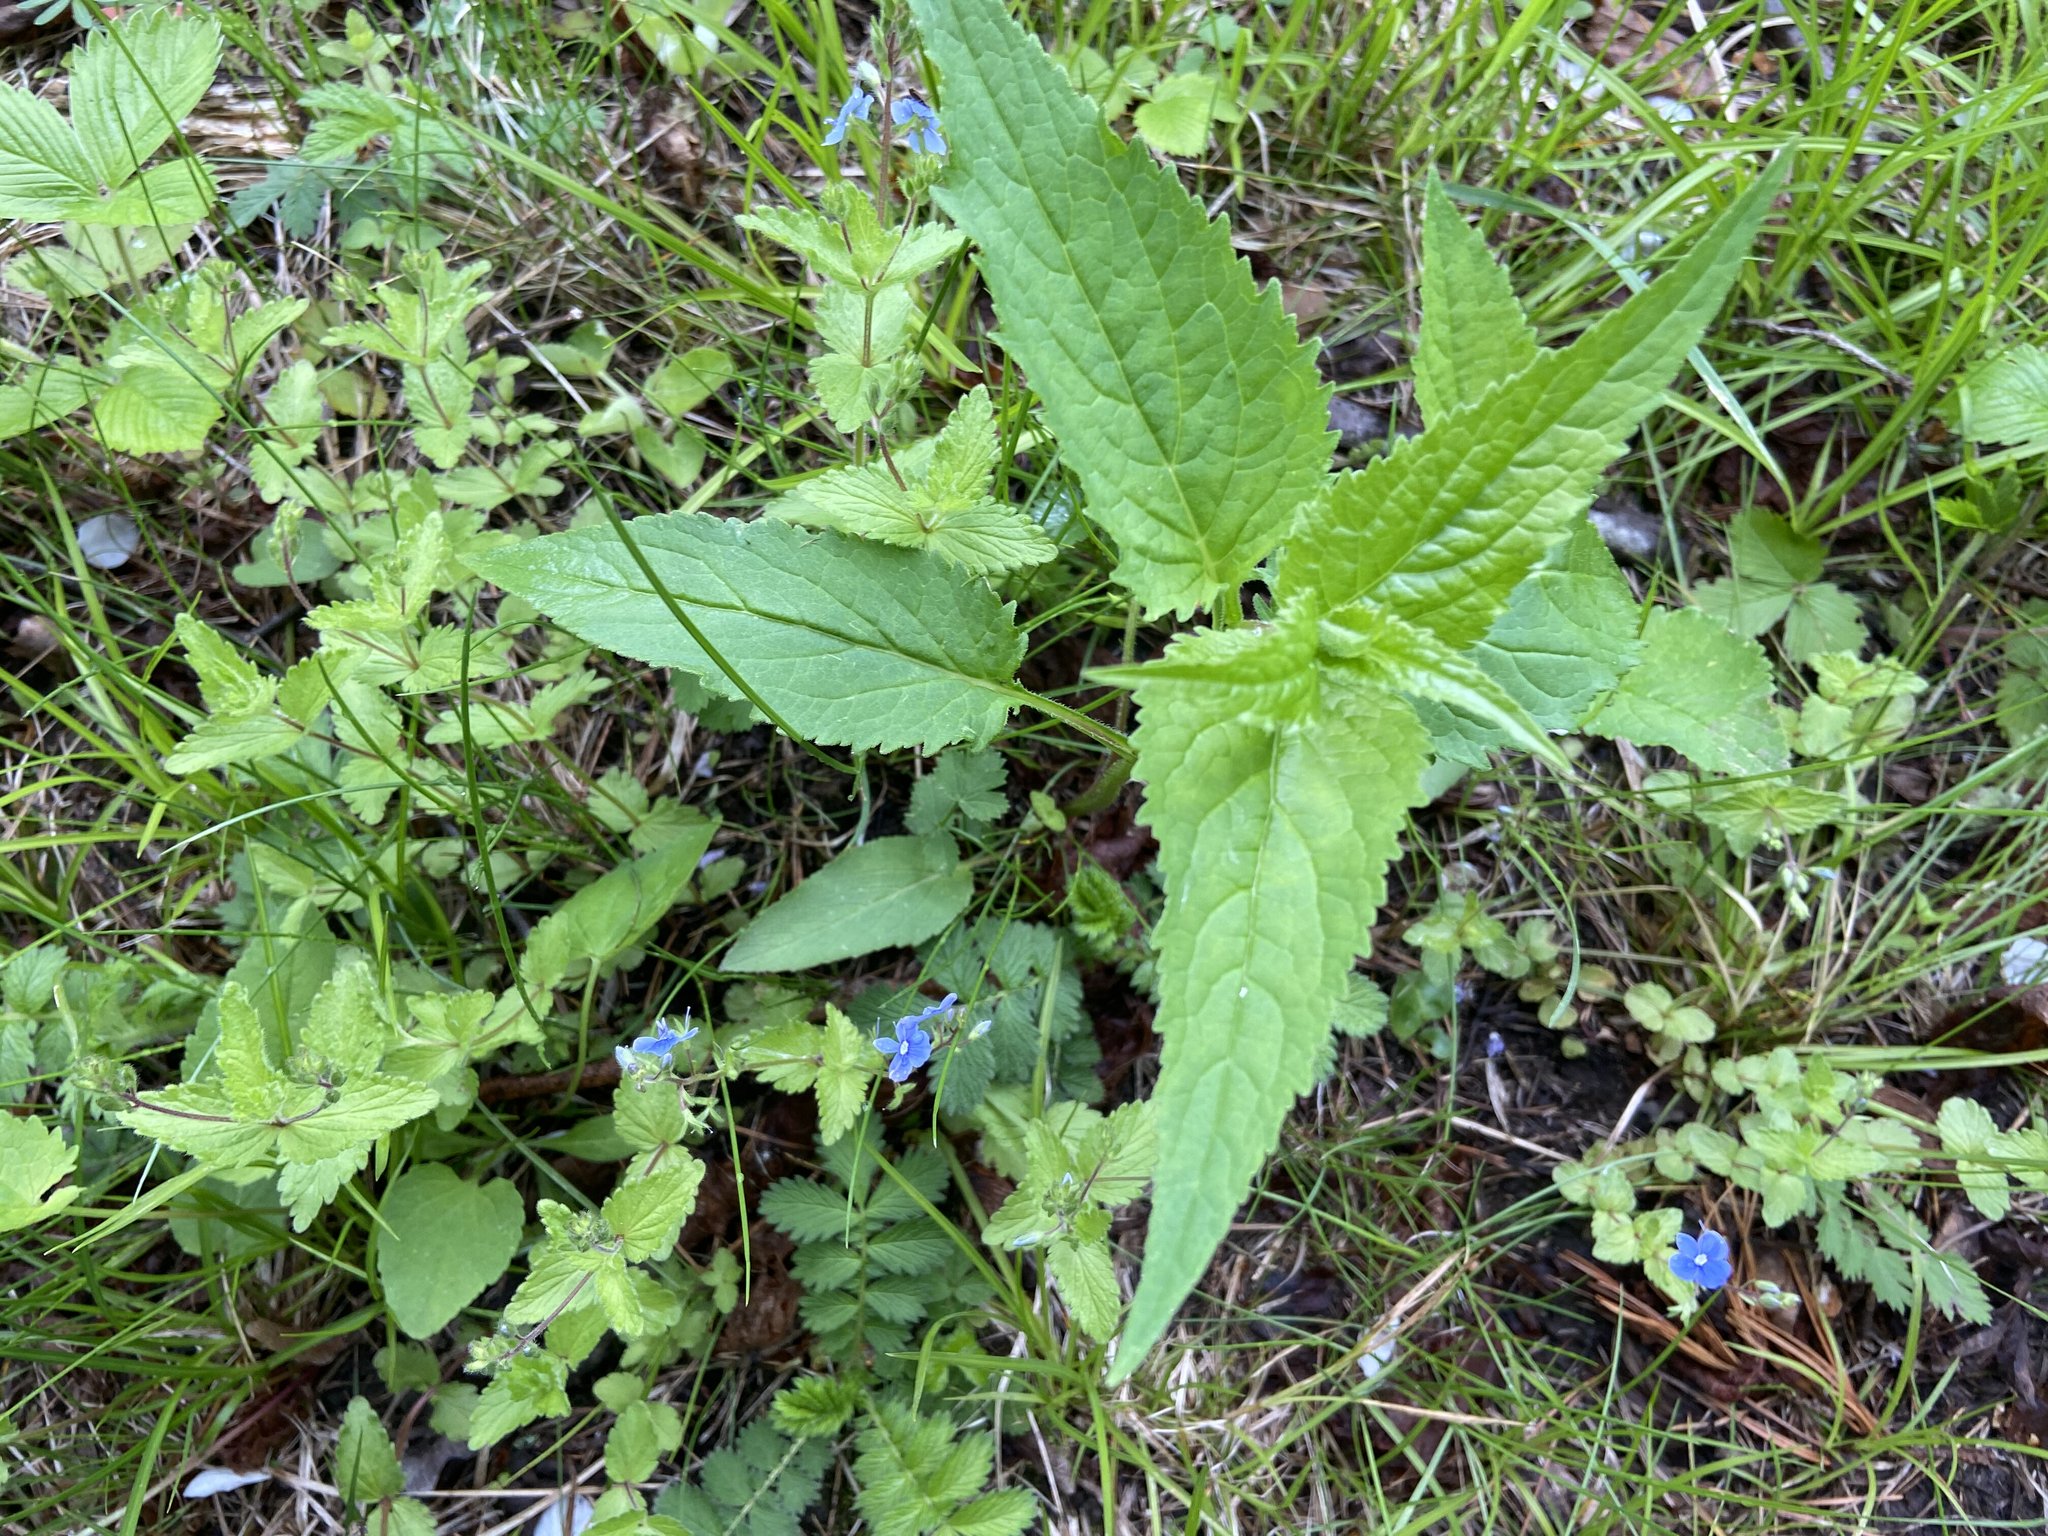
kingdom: Plantae
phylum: Tracheophyta
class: Magnoliopsida
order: Asterales
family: Campanulaceae
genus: Campanula
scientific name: Campanula rapunculoides
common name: Creeping bellflower
